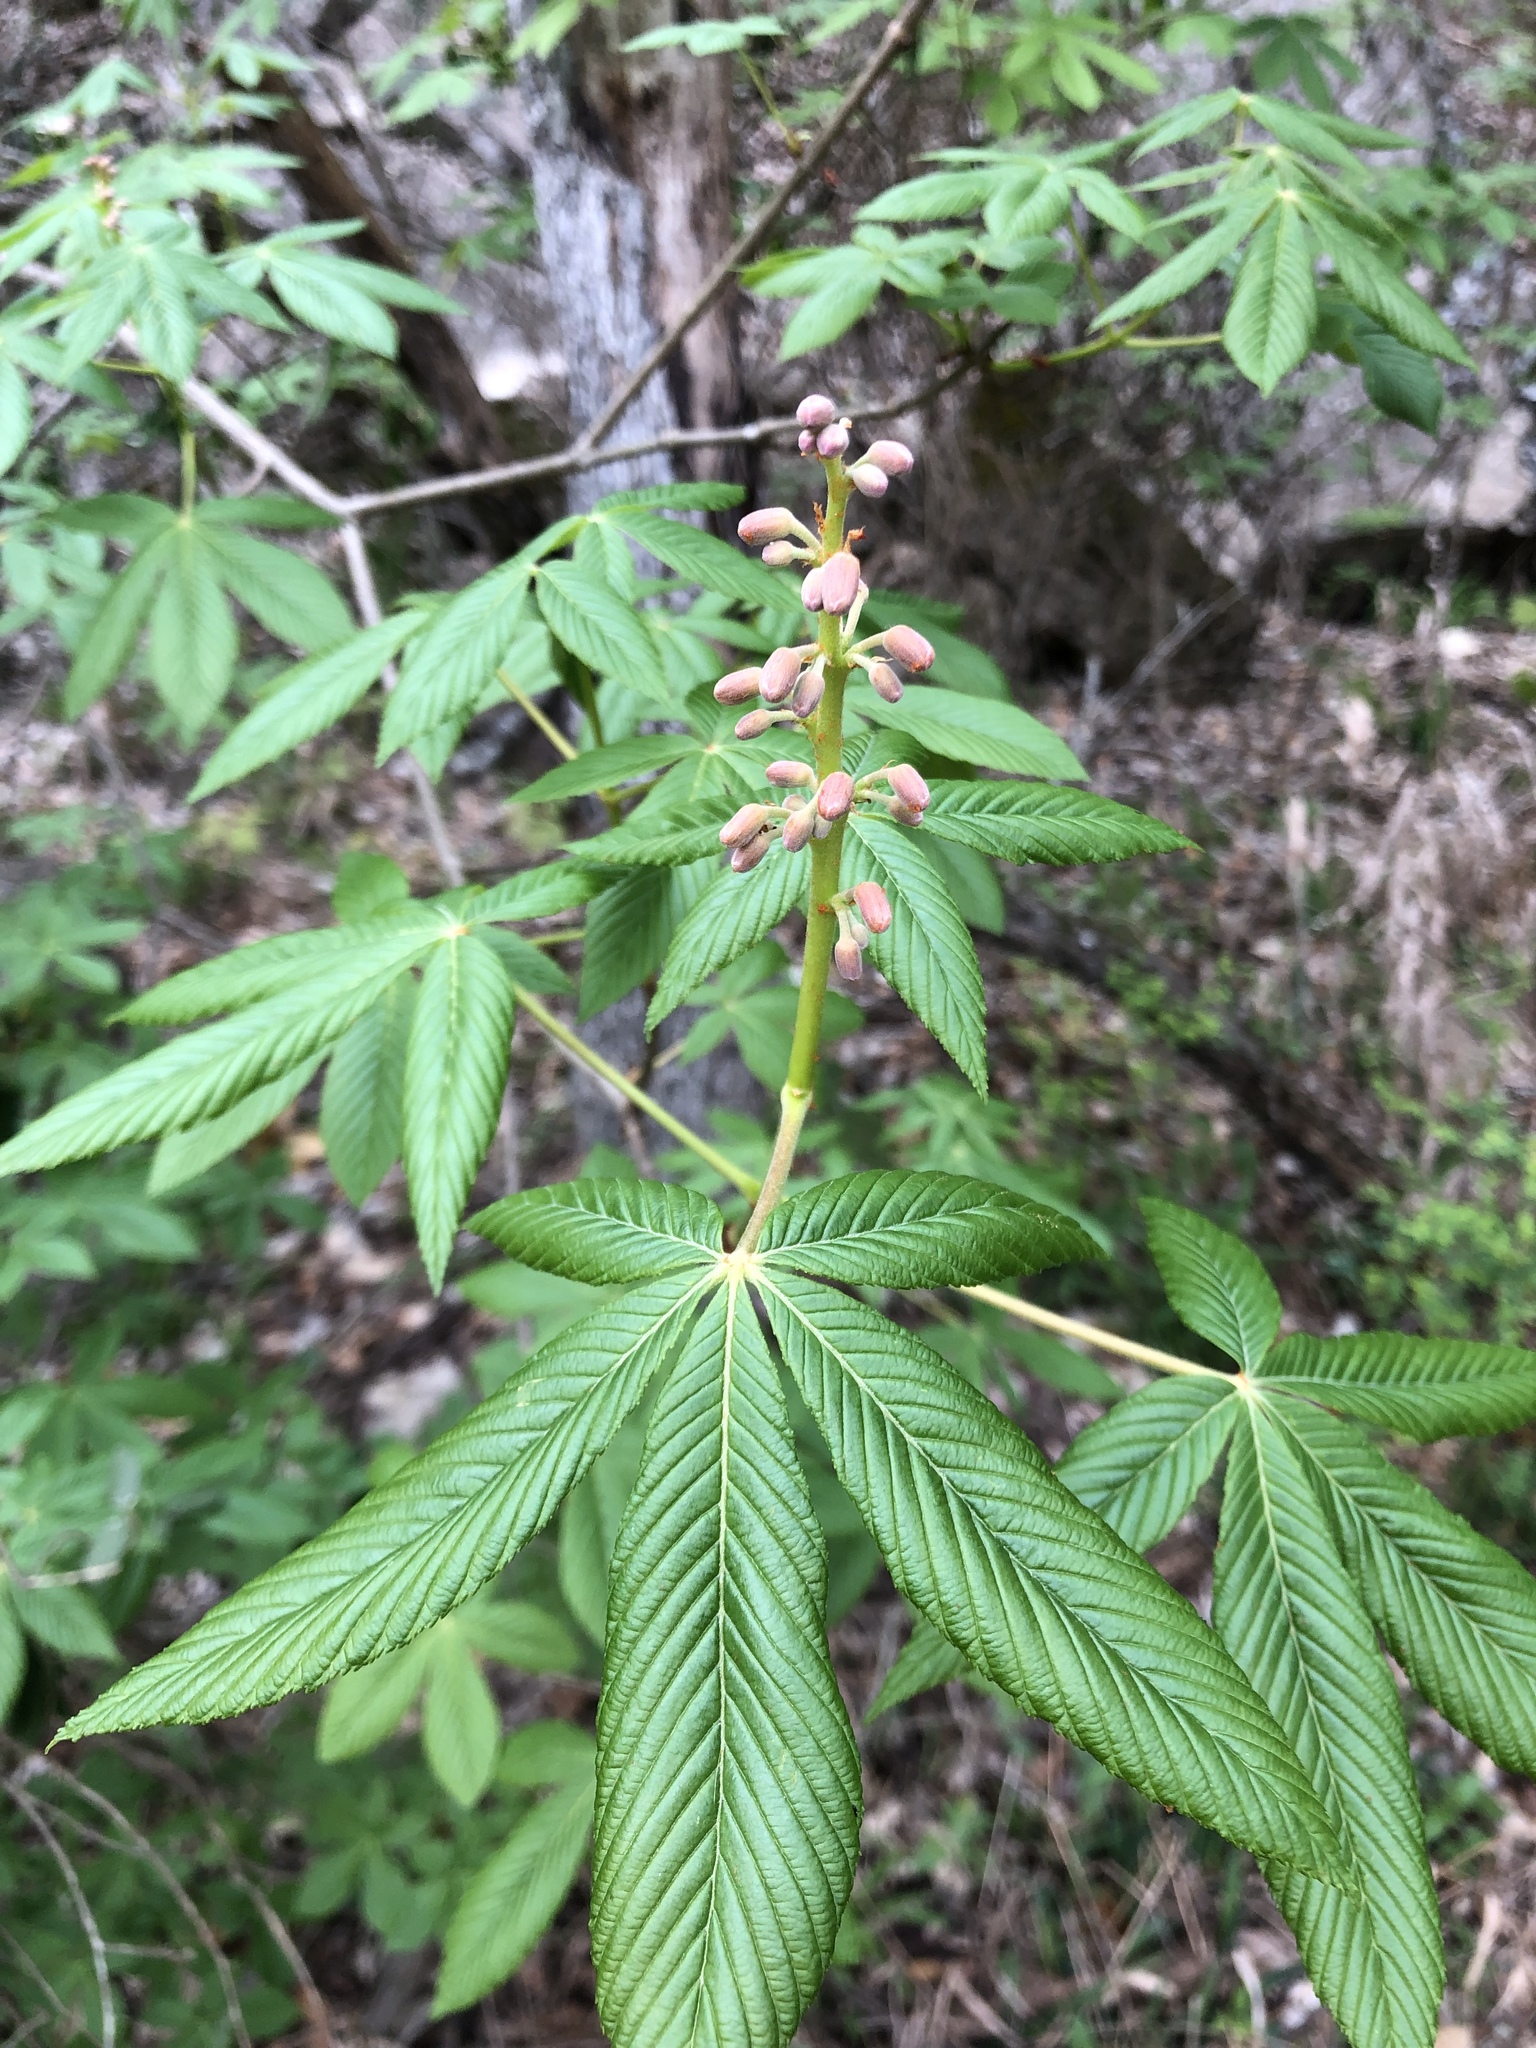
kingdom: Plantae
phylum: Tracheophyta
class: Magnoliopsida
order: Sapindales
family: Sapindaceae
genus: Aesculus
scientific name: Aesculus pavia
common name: Red buckeye
